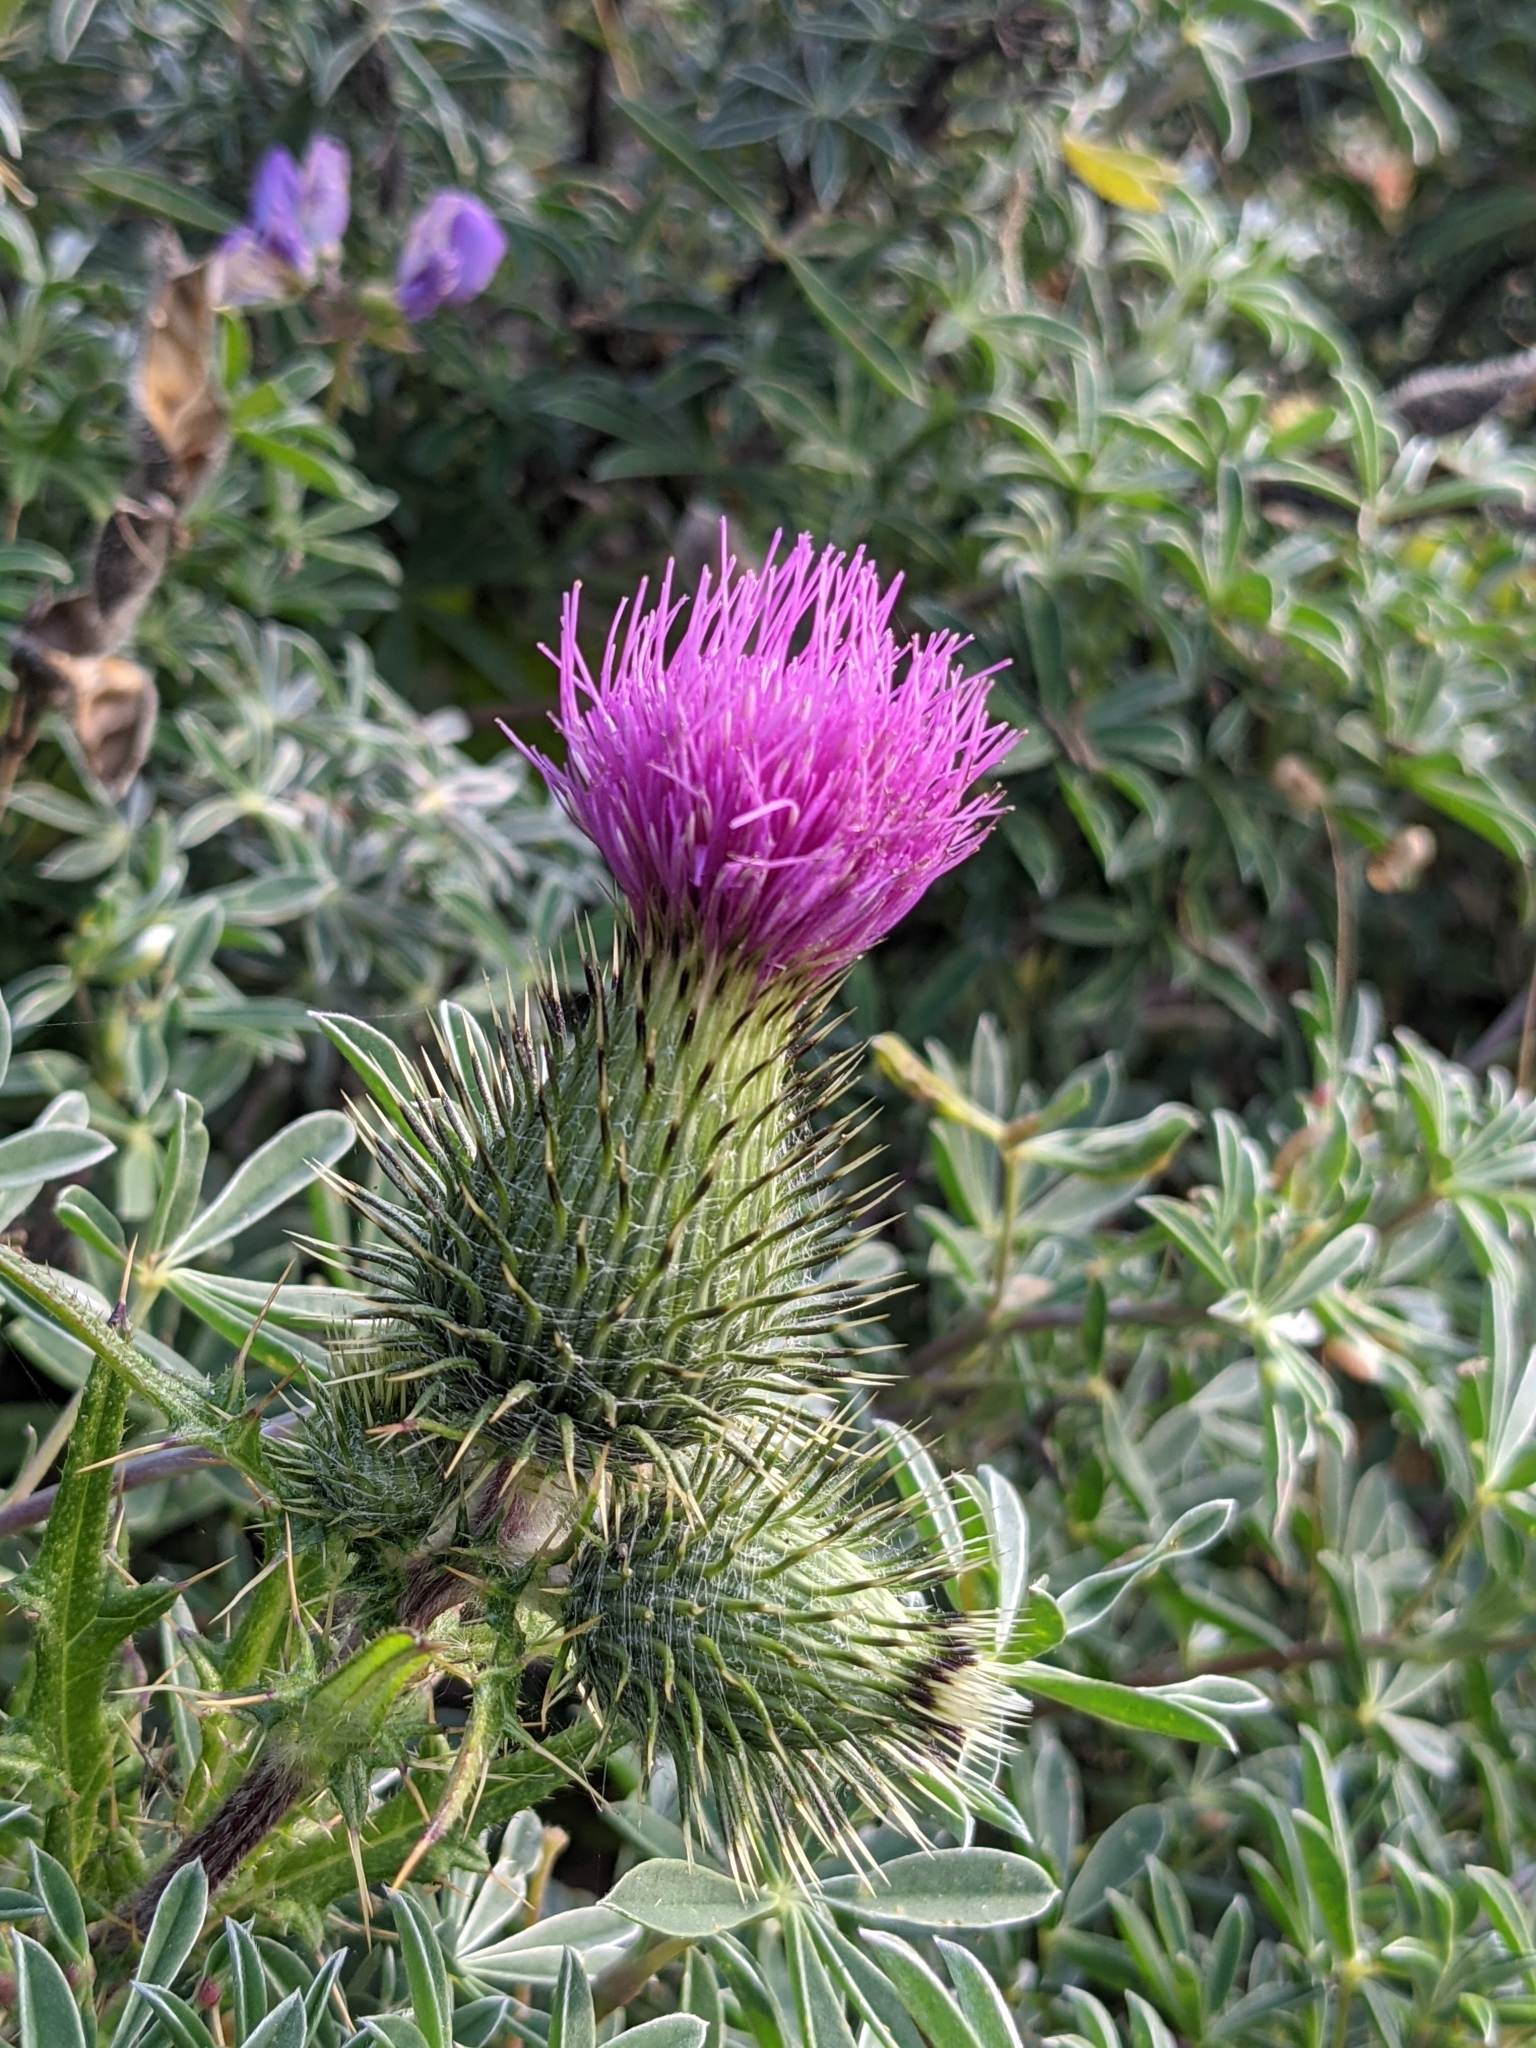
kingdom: Plantae
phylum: Tracheophyta
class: Magnoliopsida
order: Asterales
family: Asteraceae
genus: Cirsium
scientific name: Cirsium vulgare
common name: Bull thistle
